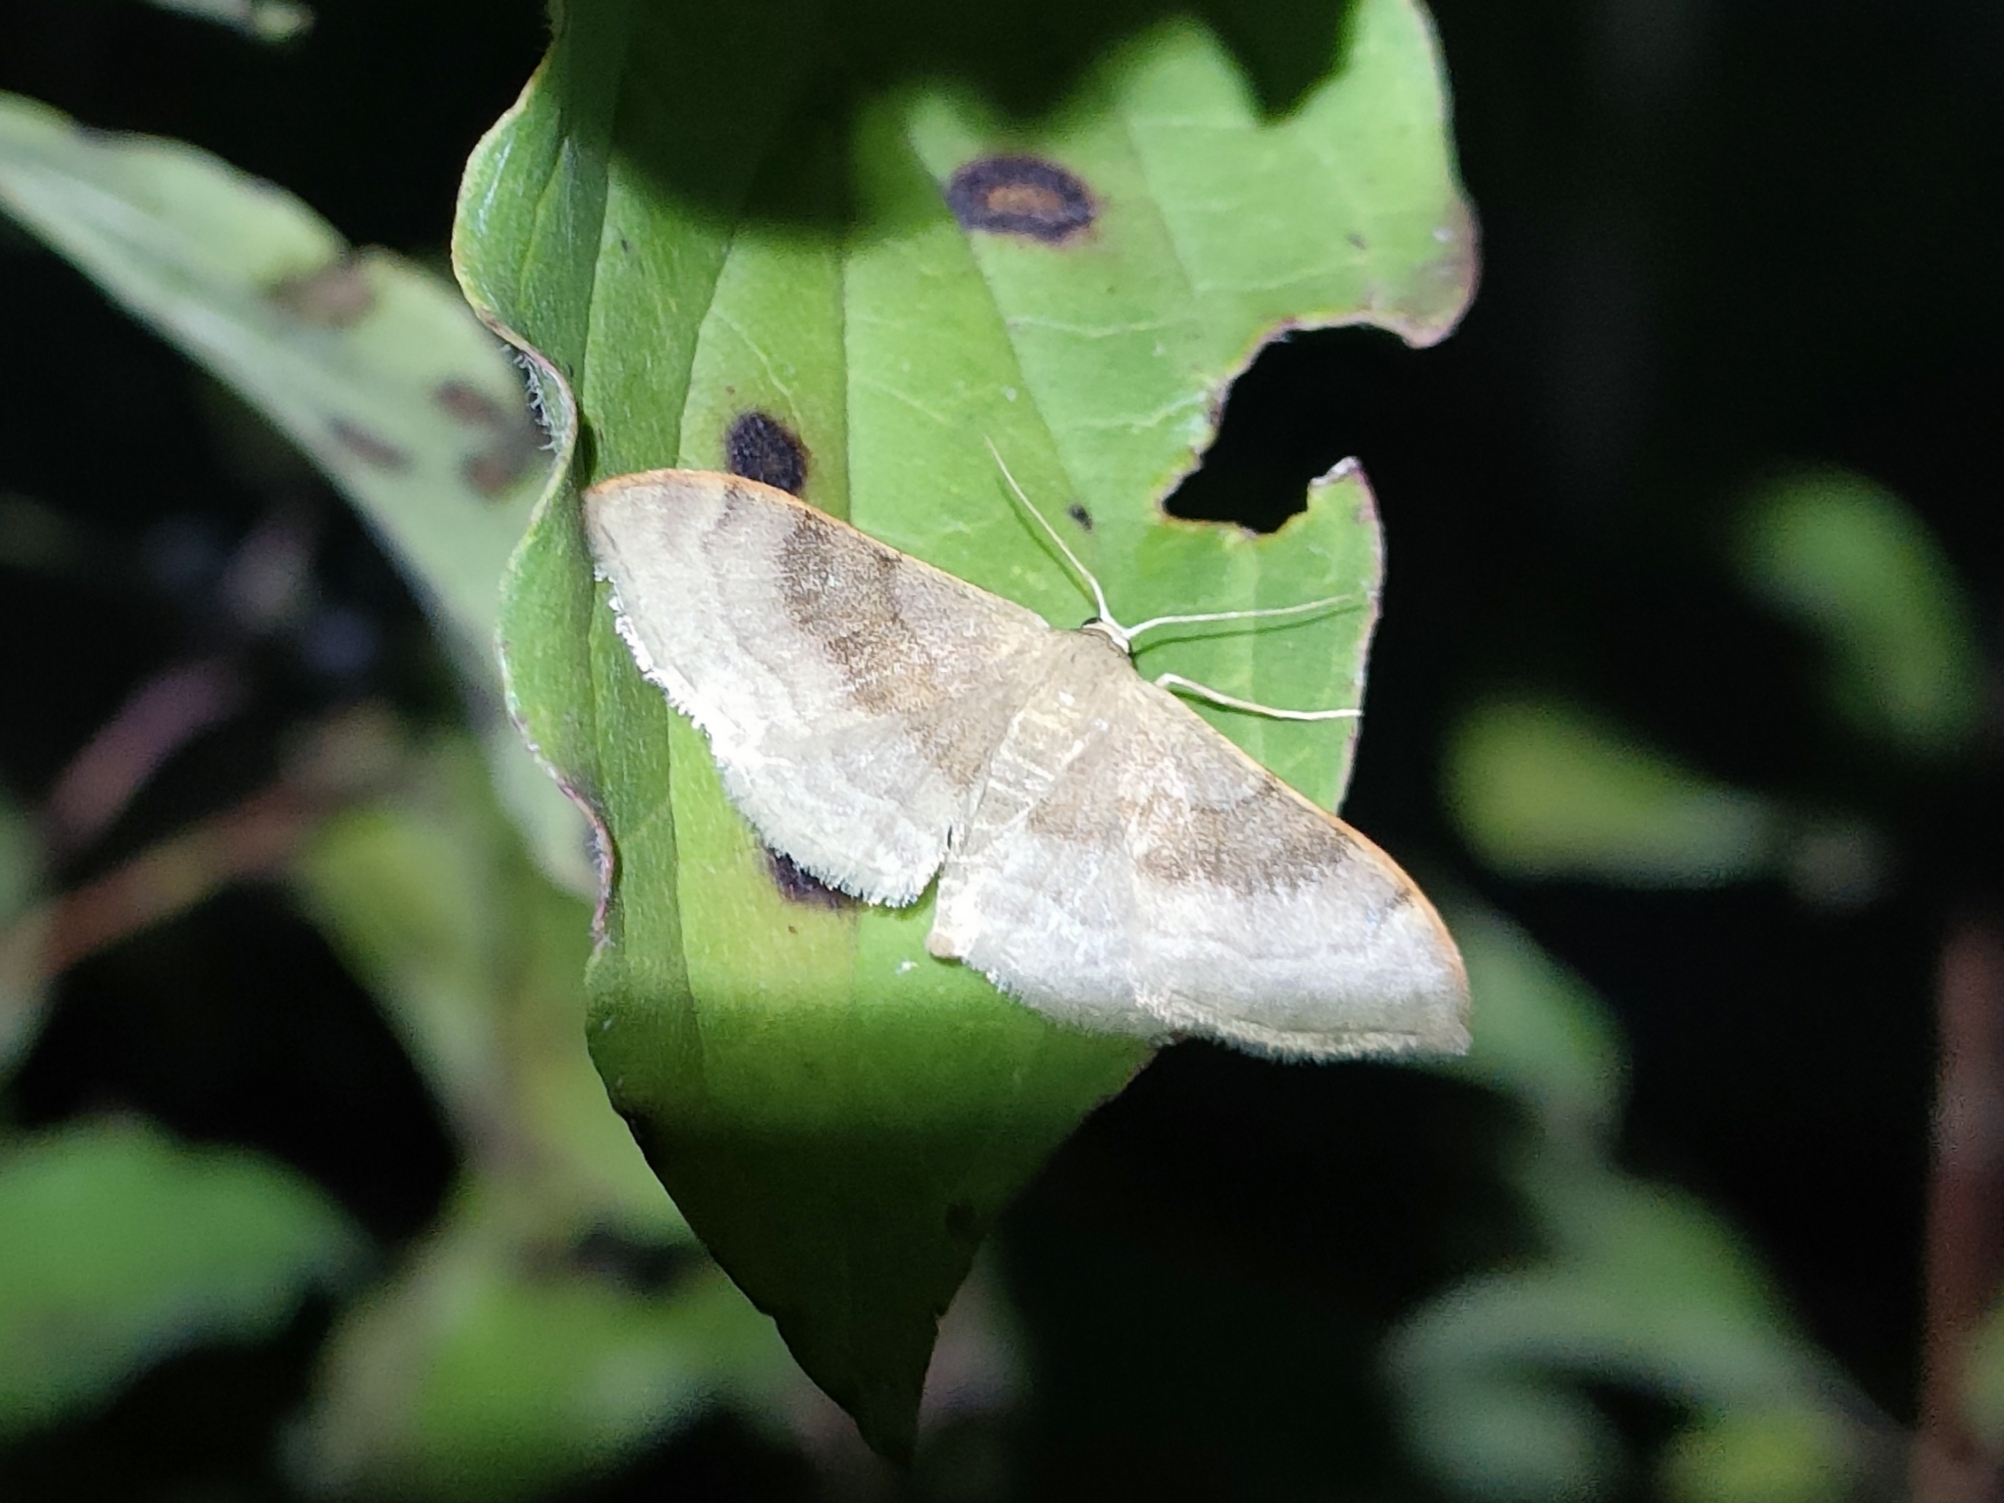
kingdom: Animalia
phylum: Arthropoda
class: Insecta
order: Lepidoptera
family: Geometridae
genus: Idaea
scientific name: Idaea degeneraria
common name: Portland ribbon wave
